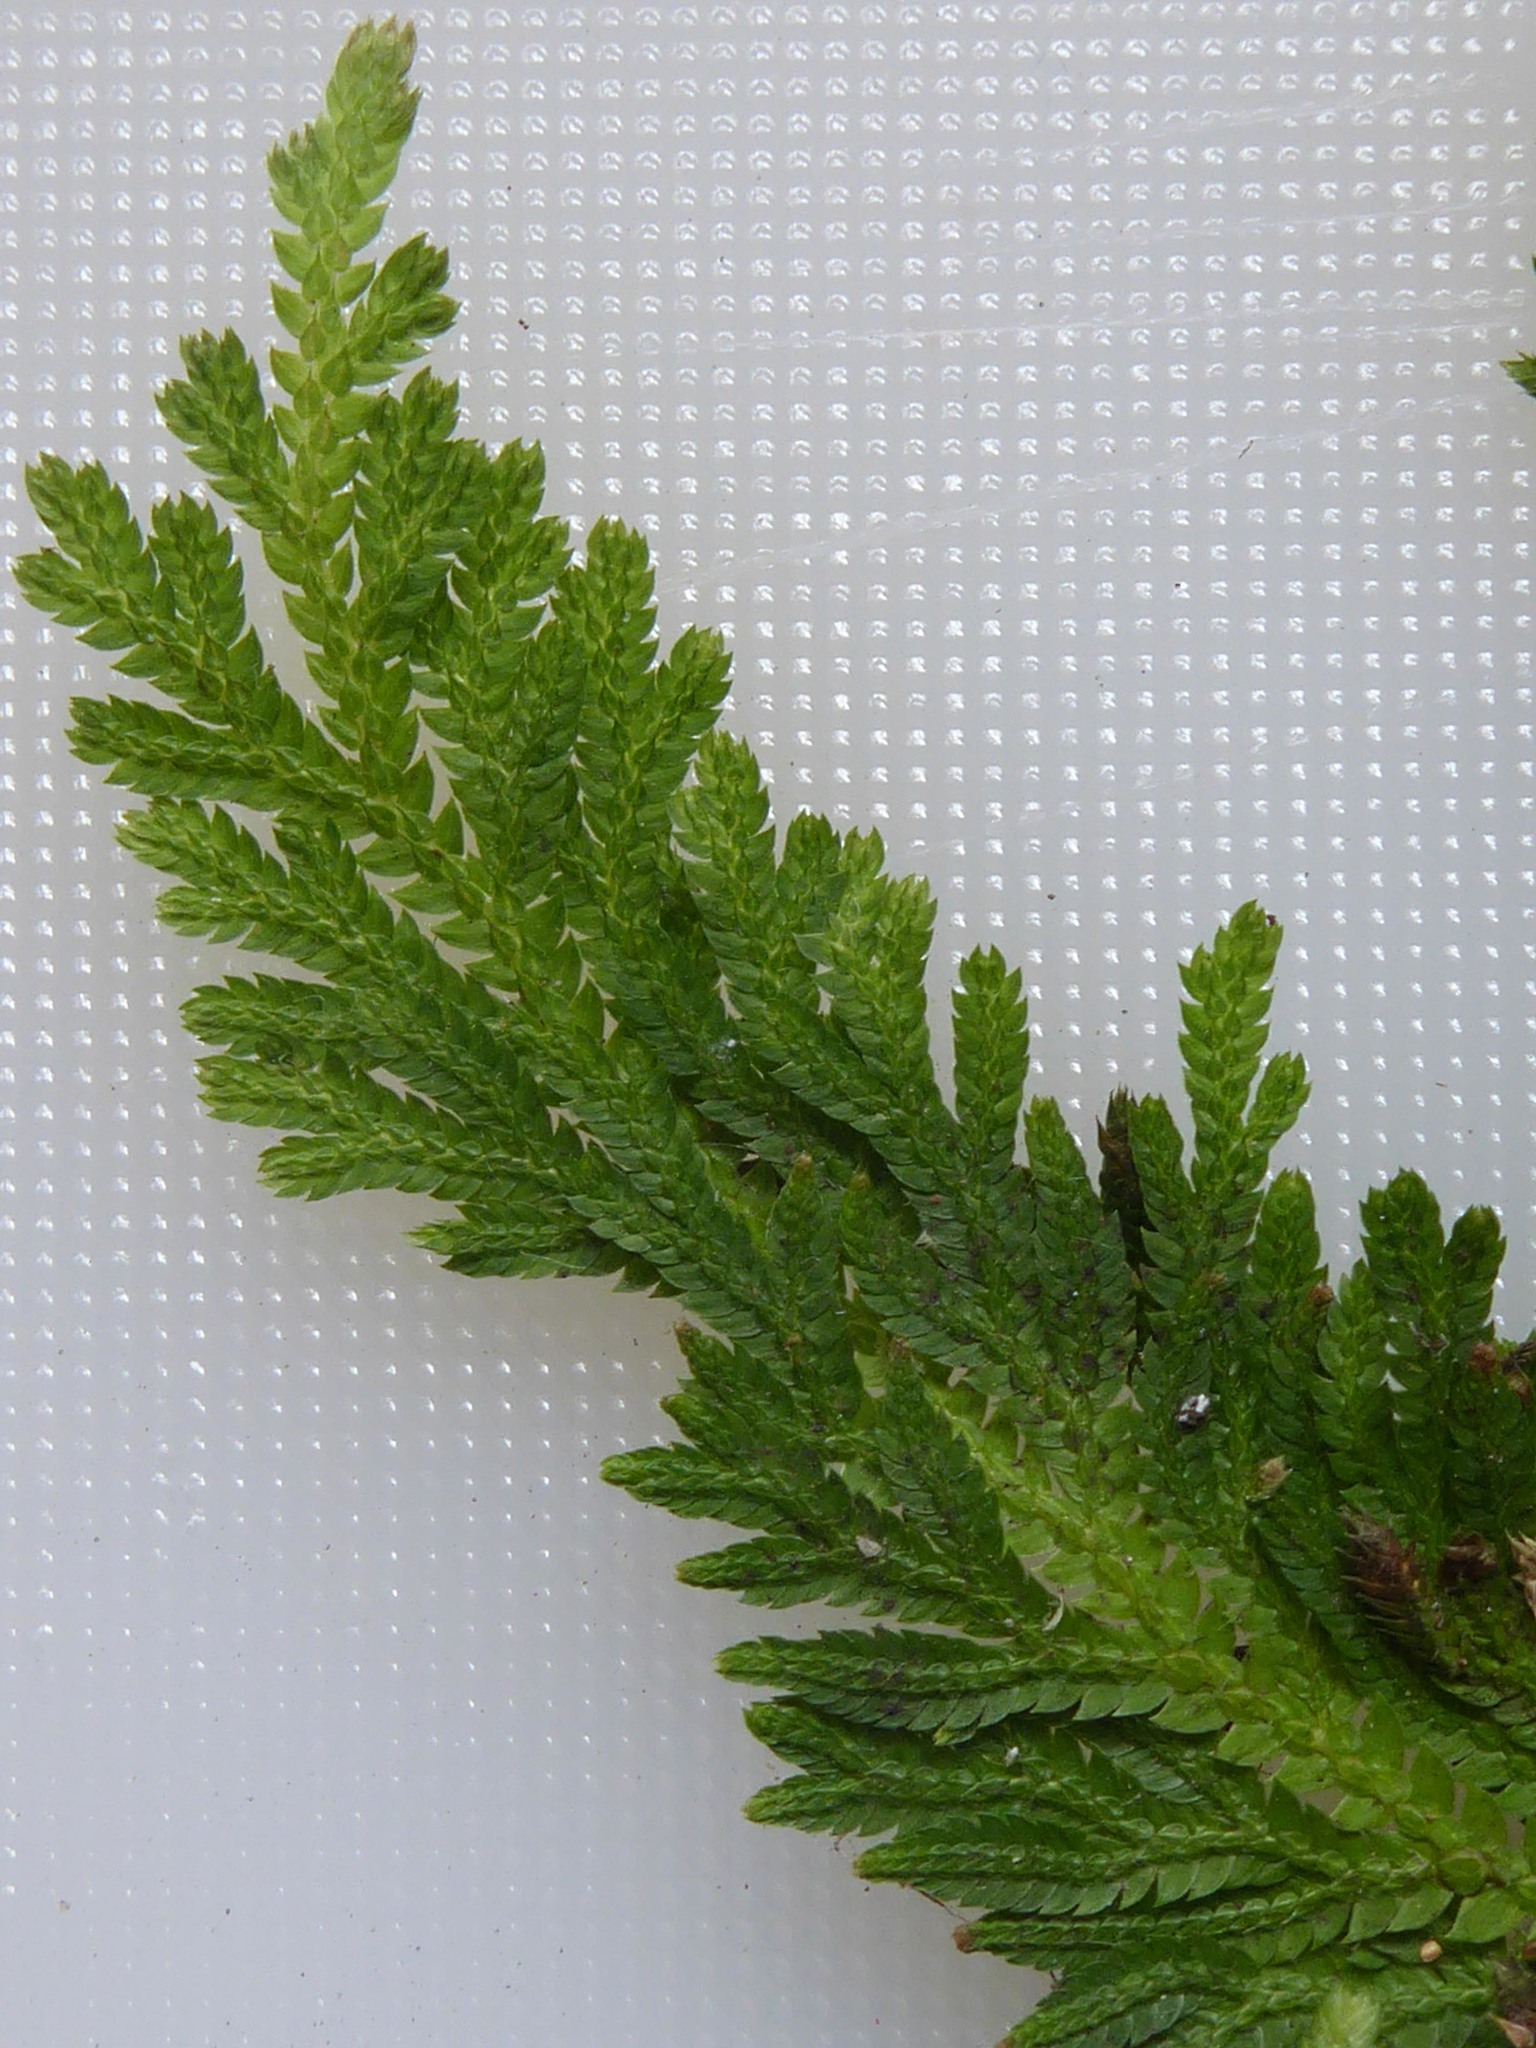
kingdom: Plantae
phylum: Tracheophyta
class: Lycopodiopsida
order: Selaginellales
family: Selaginellaceae
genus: Selaginella
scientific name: Selaginella moellendorffii
